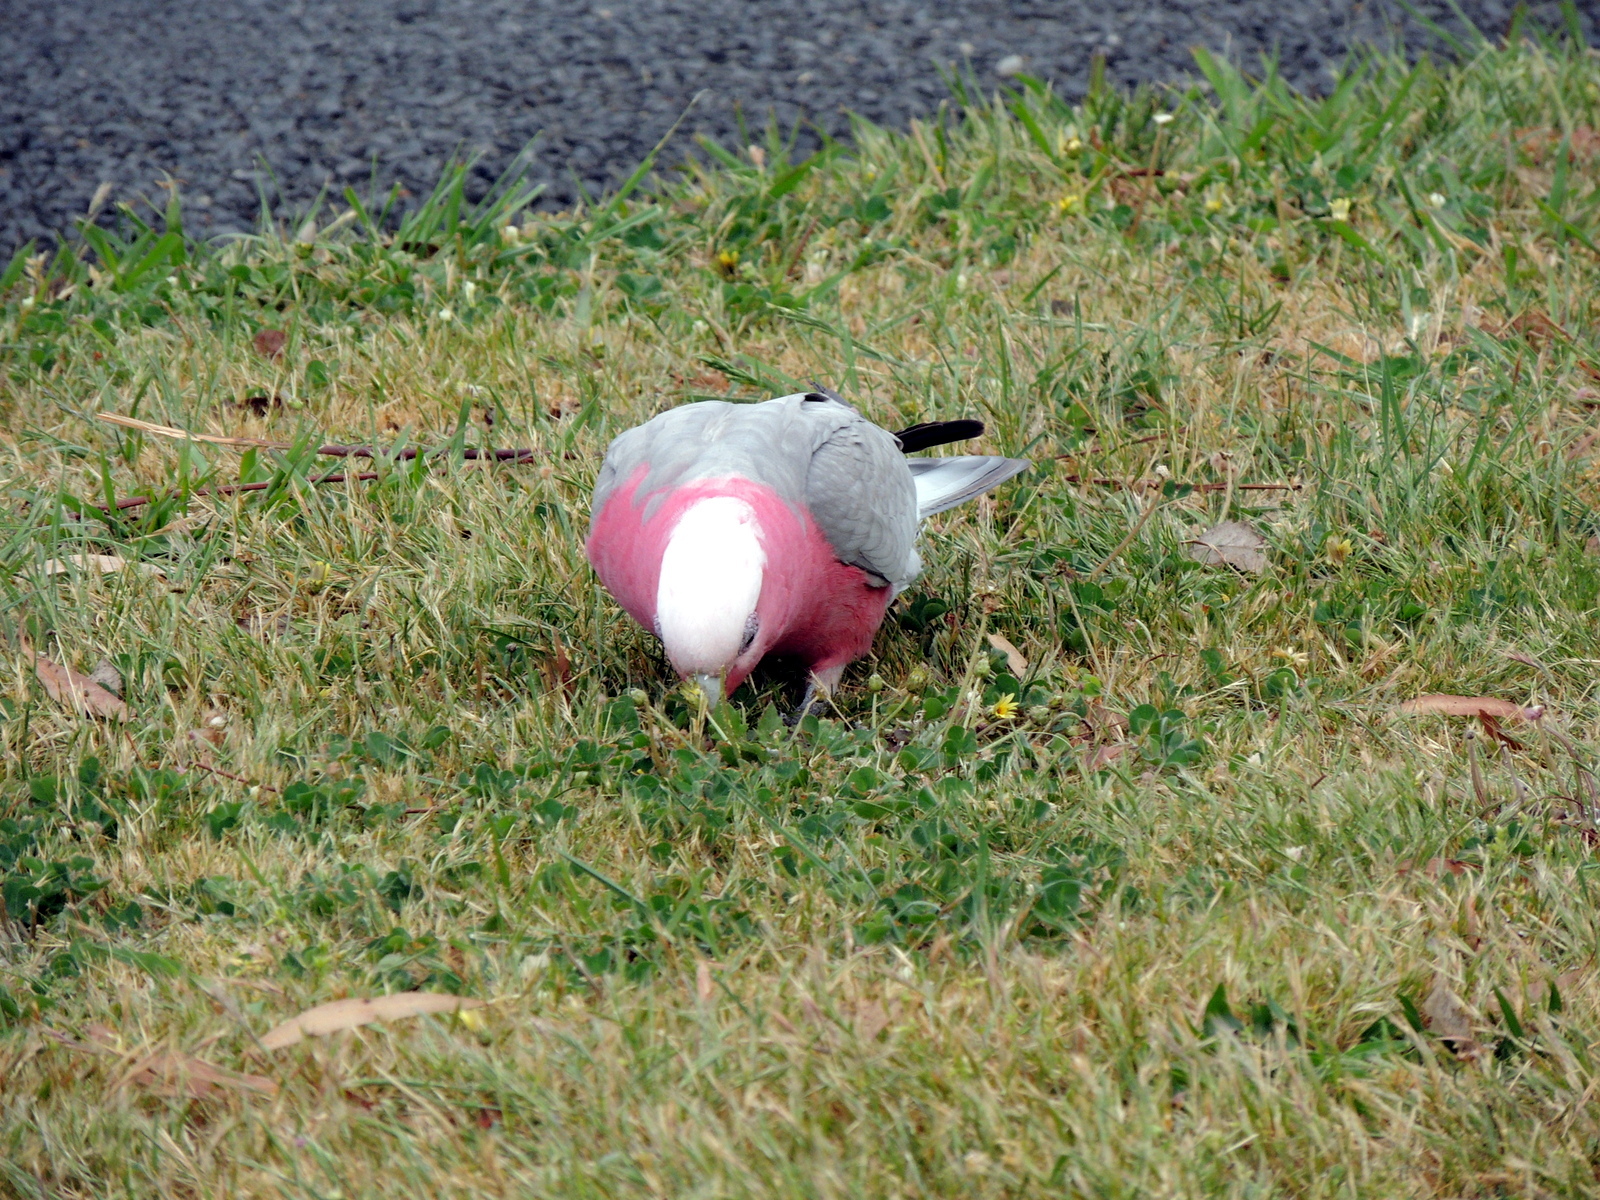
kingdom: Animalia
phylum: Chordata
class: Aves
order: Psittaciformes
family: Psittacidae
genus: Eolophus
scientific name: Eolophus roseicapilla
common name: Galah
